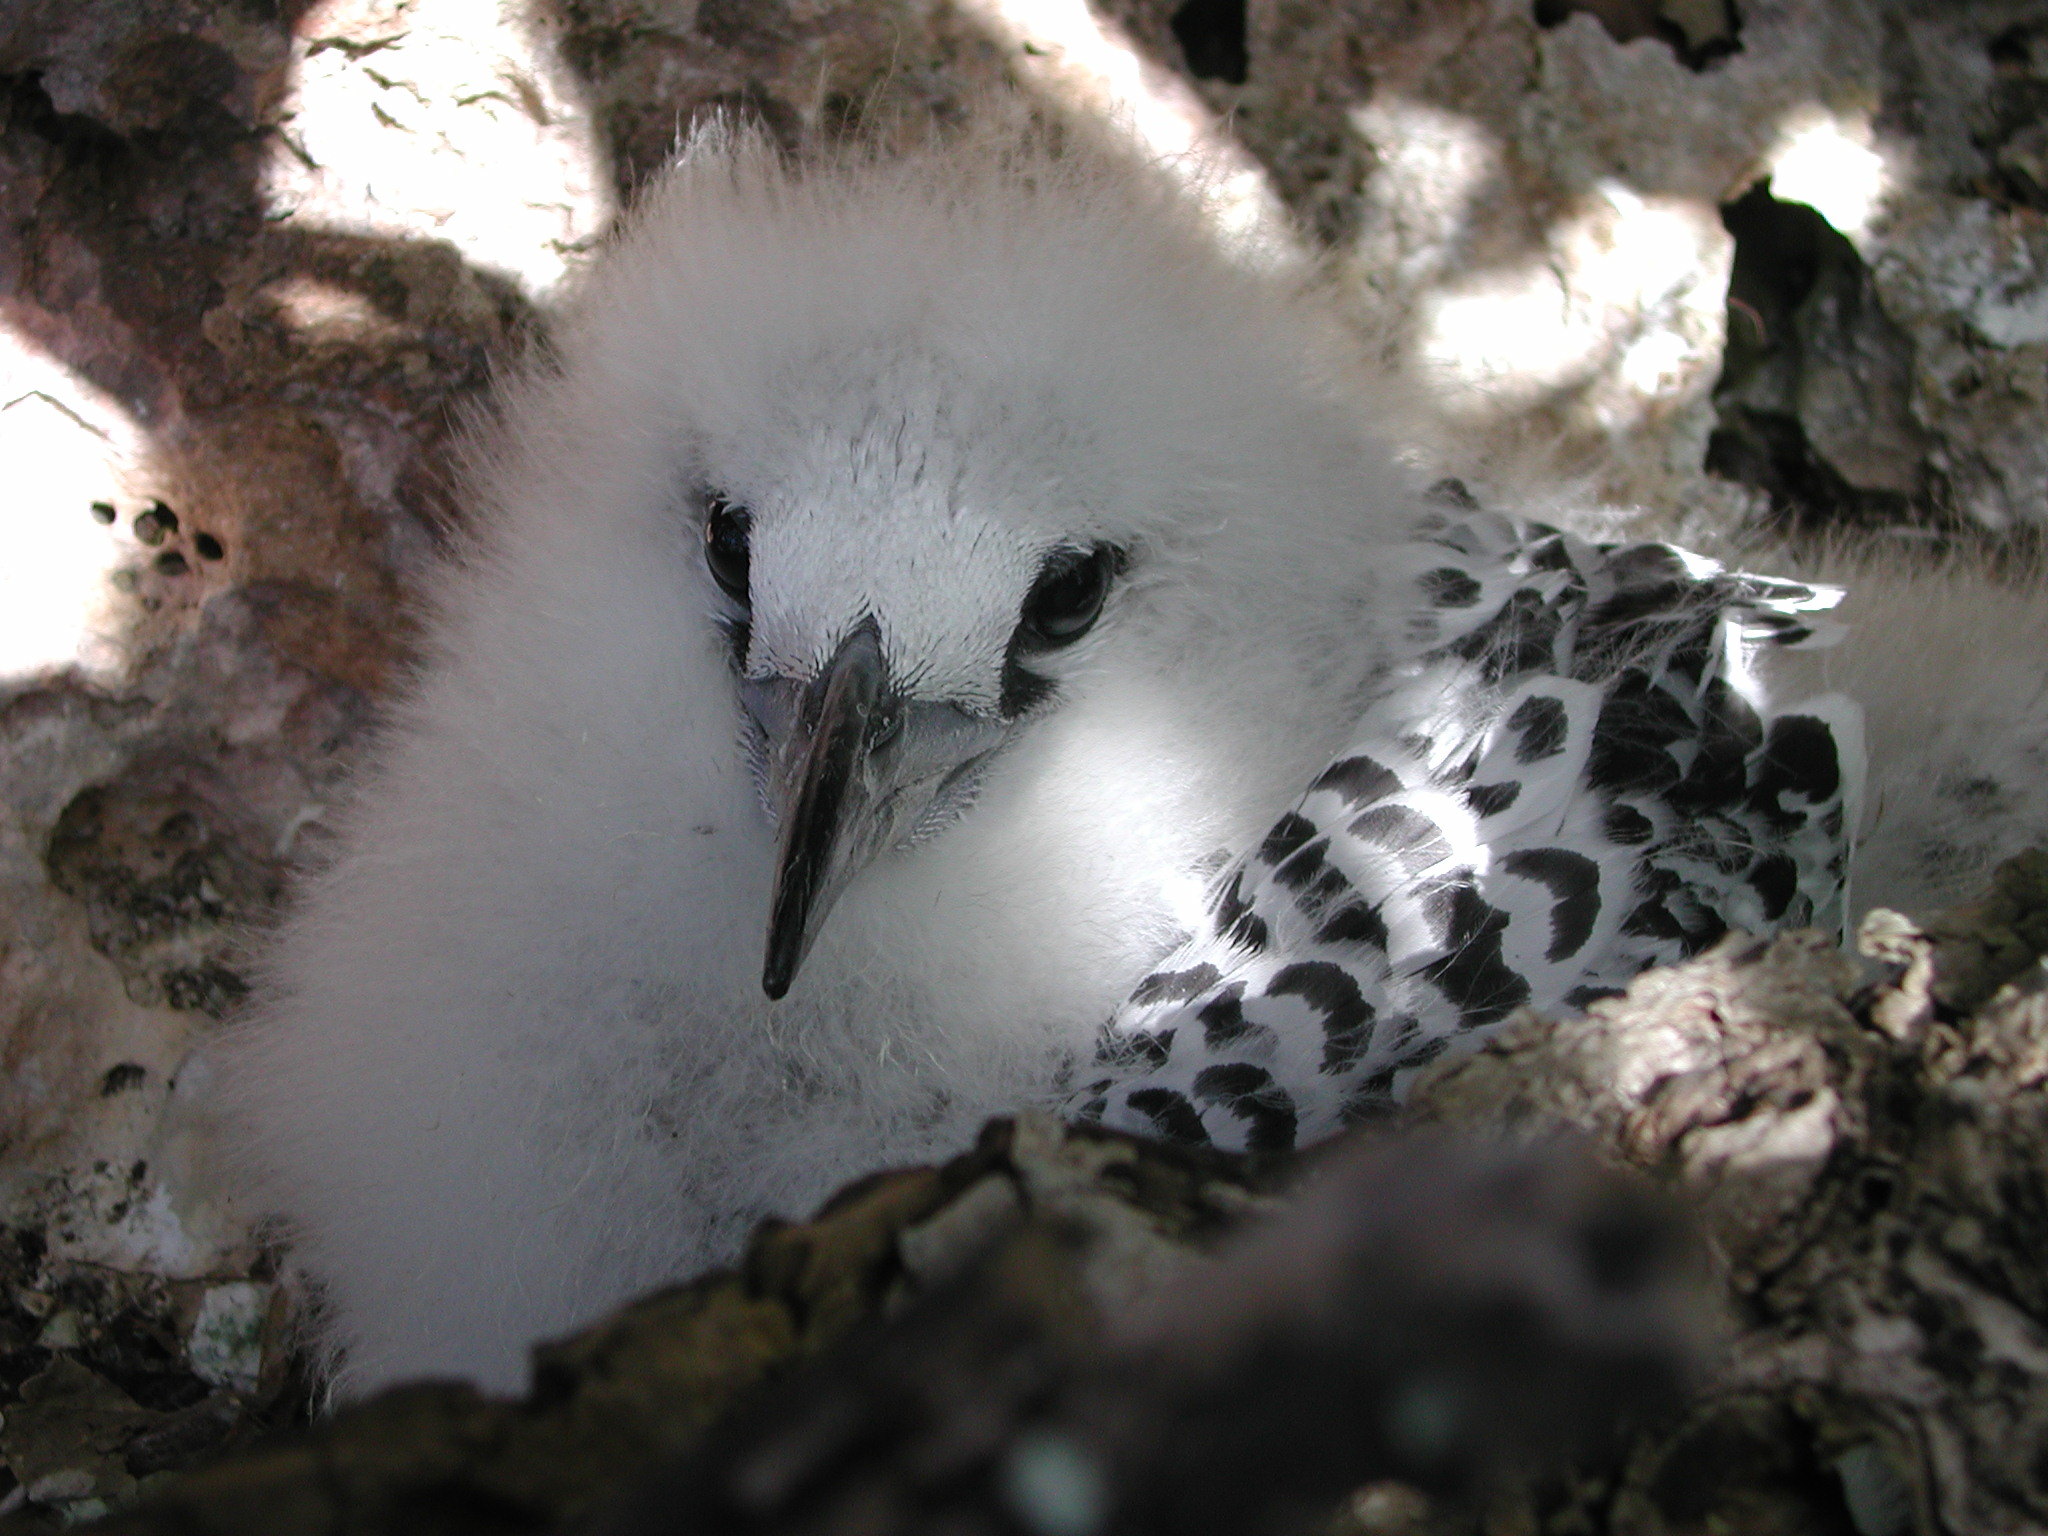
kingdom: Animalia
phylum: Chordata
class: Aves
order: Phaethontiformes
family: Phaethontidae
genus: Phaethon
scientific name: Phaethon rubricauda
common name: Red-tailed tropicbird
